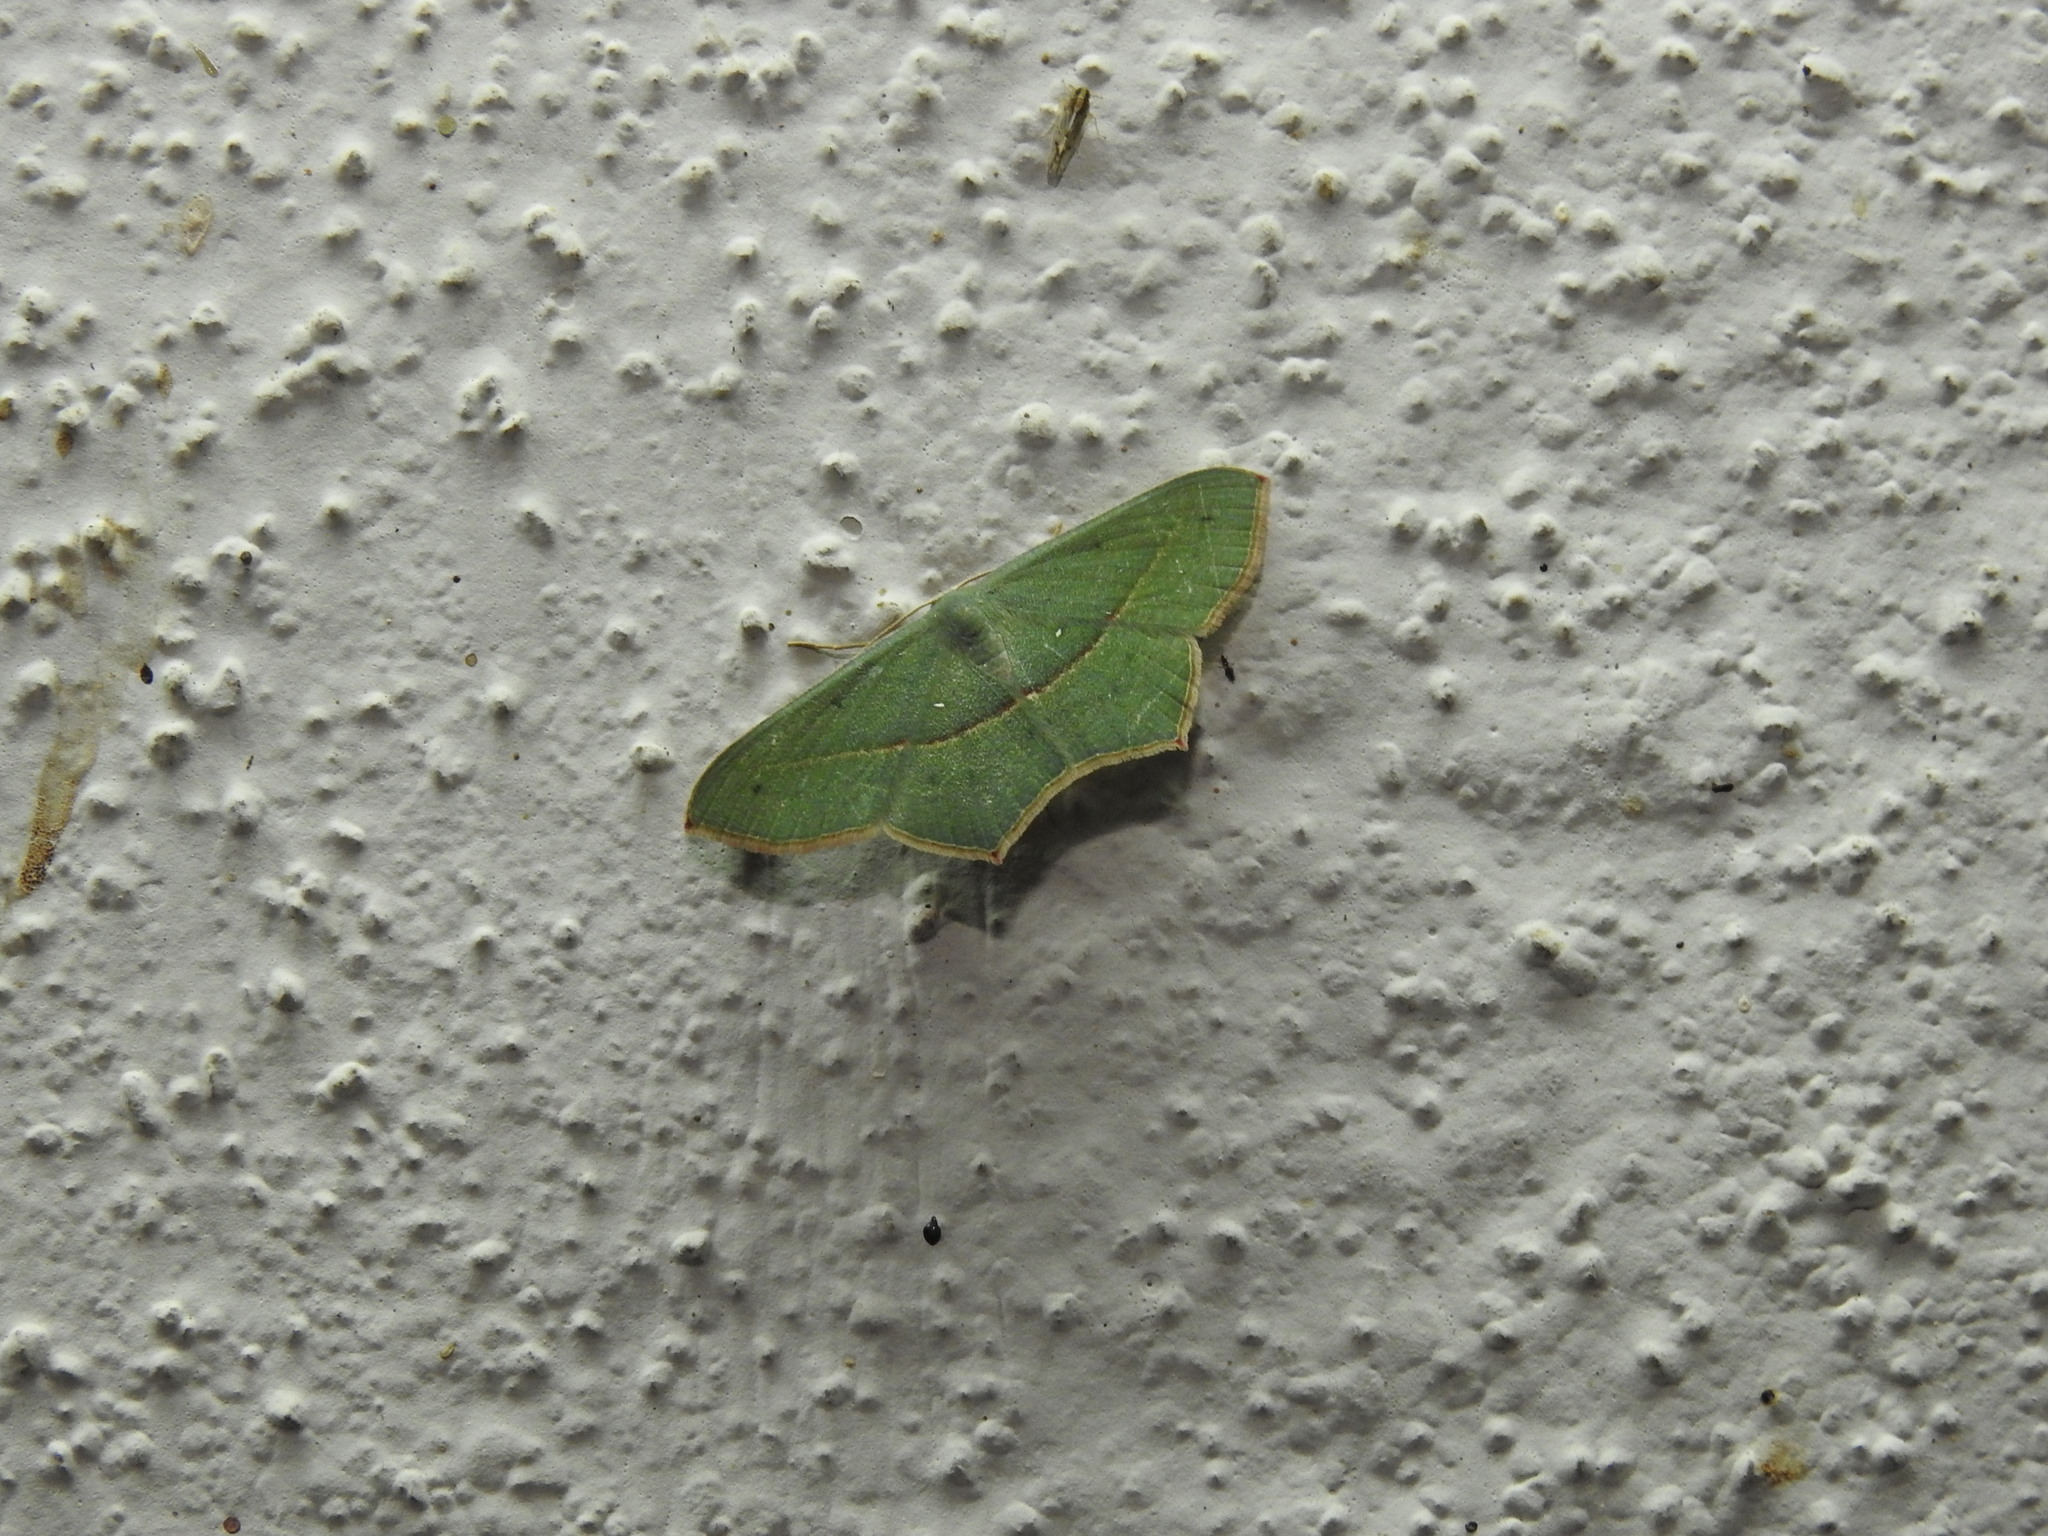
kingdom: Animalia
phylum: Arthropoda
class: Insecta
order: Lepidoptera
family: Geometridae
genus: Traminda
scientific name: Traminda mundissima
